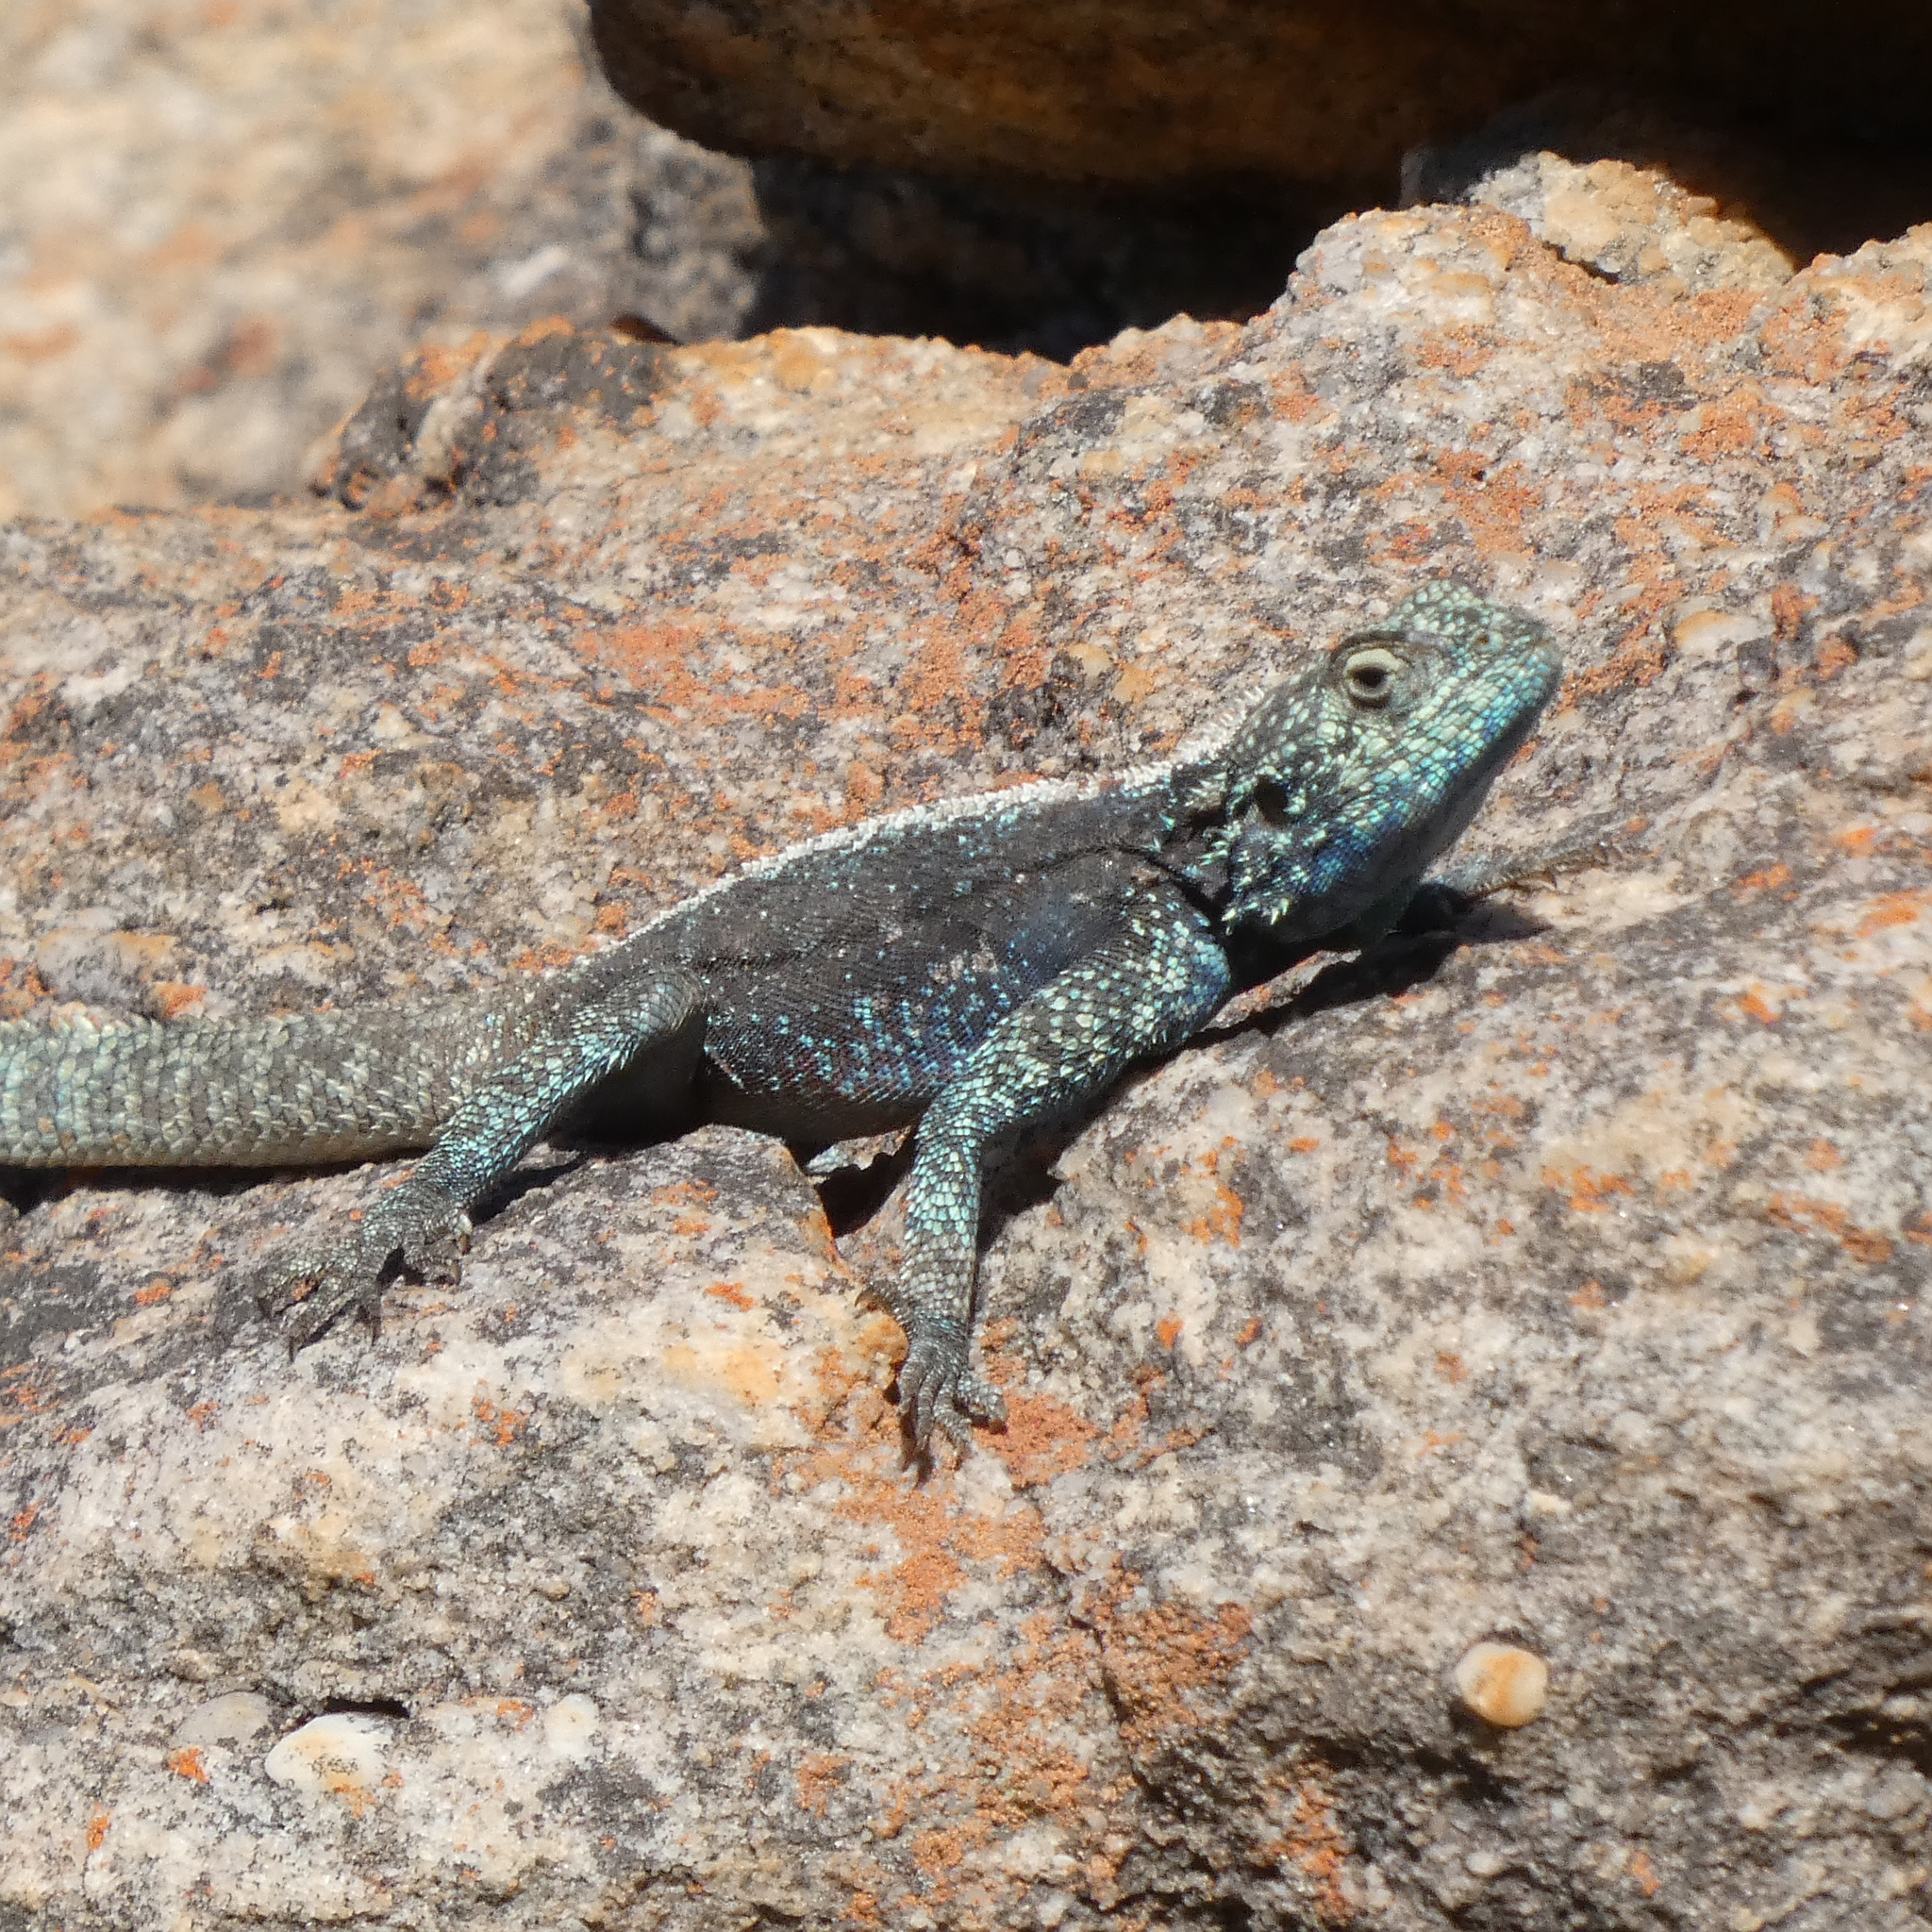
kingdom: Animalia
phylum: Chordata
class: Squamata
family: Agamidae
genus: Agama
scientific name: Agama atra
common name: Southern african rock agama
